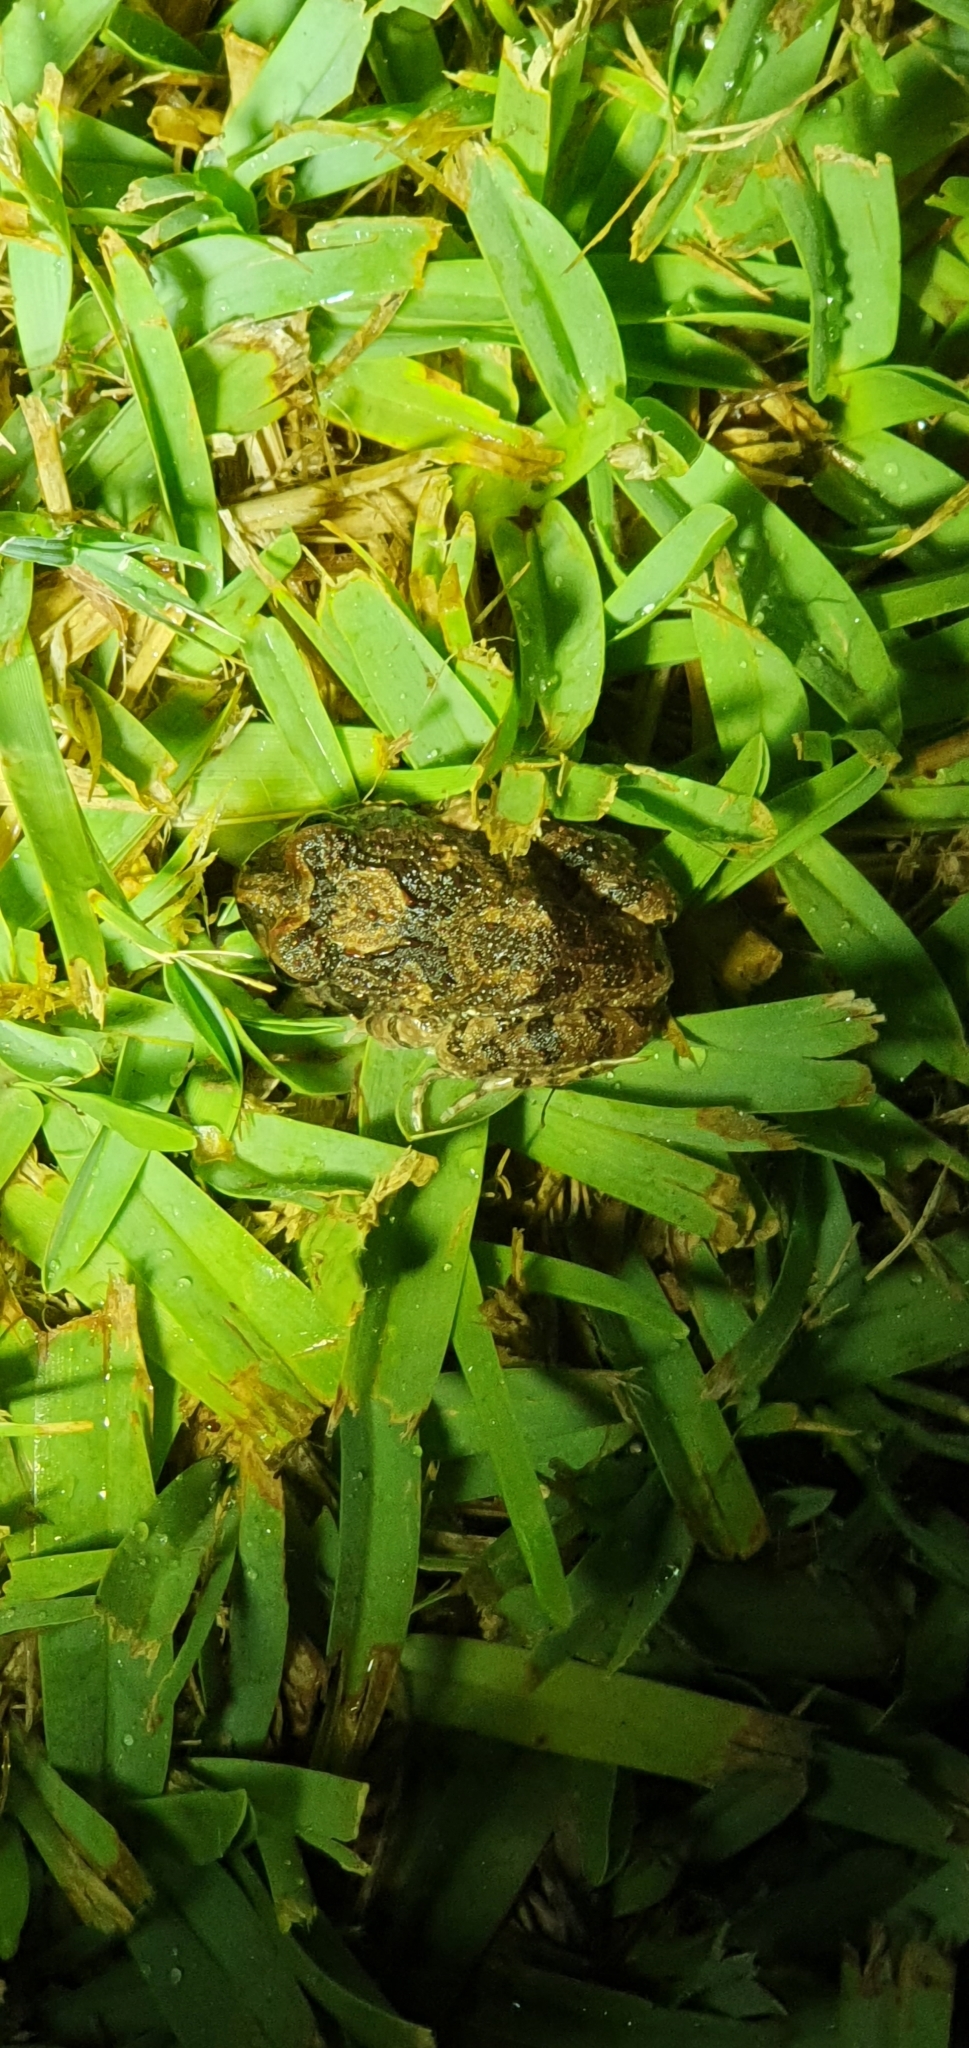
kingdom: Animalia
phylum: Chordata
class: Amphibia
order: Anura
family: Limnodynastidae
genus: Platyplectrum
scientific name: Platyplectrum ornatum
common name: Ornate burrowing frog
